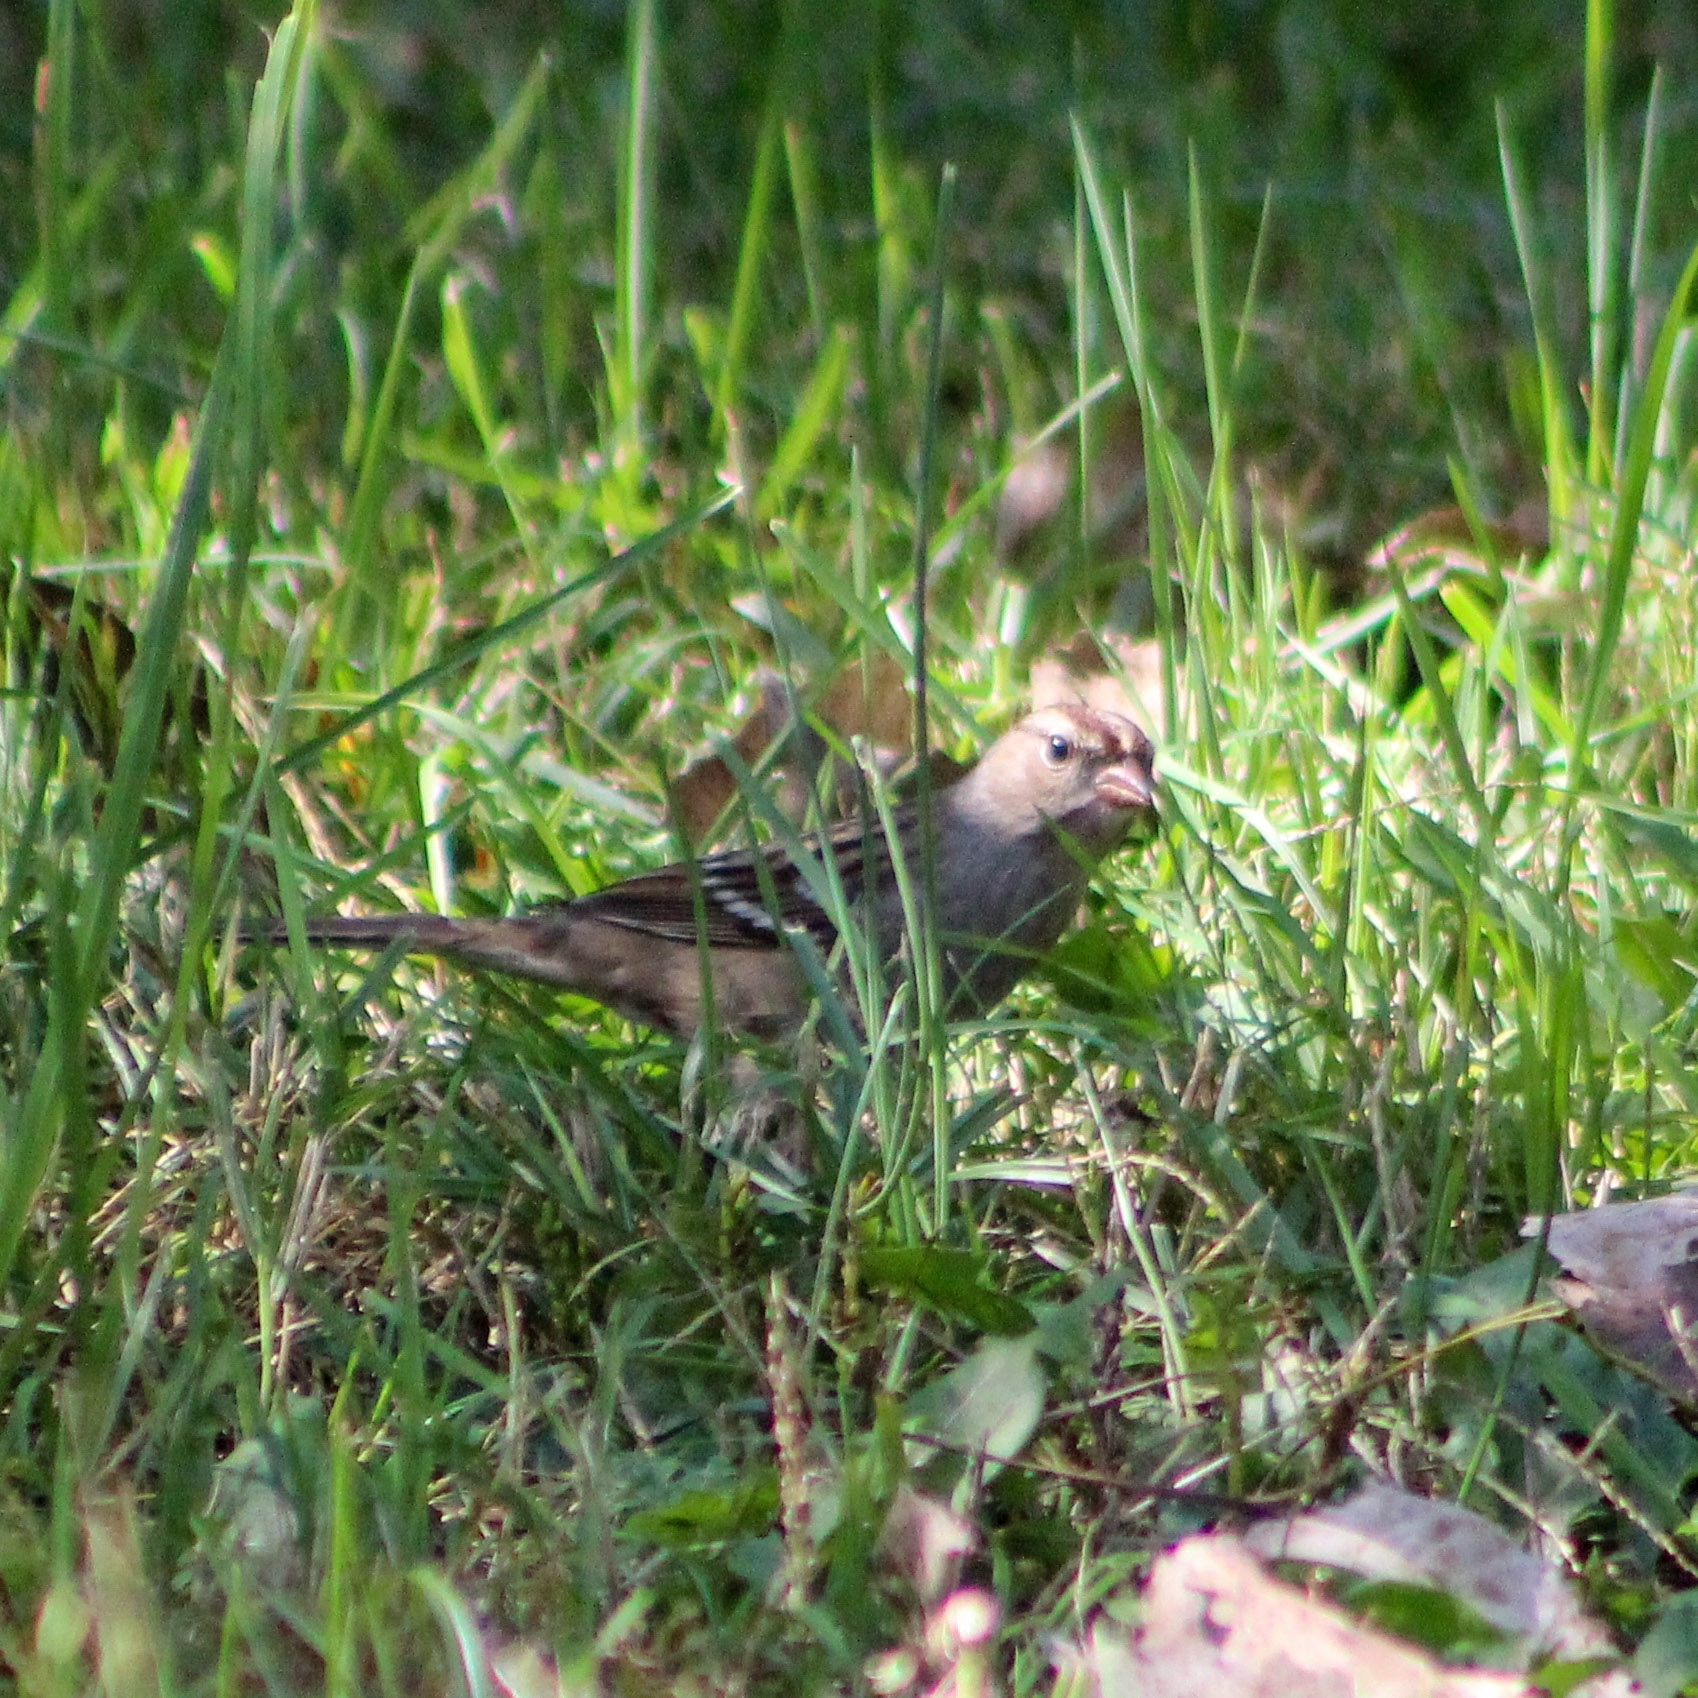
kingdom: Animalia
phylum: Chordata
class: Aves
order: Passeriformes
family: Passerellidae
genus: Zonotrichia
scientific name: Zonotrichia leucophrys
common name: White-crowned sparrow
